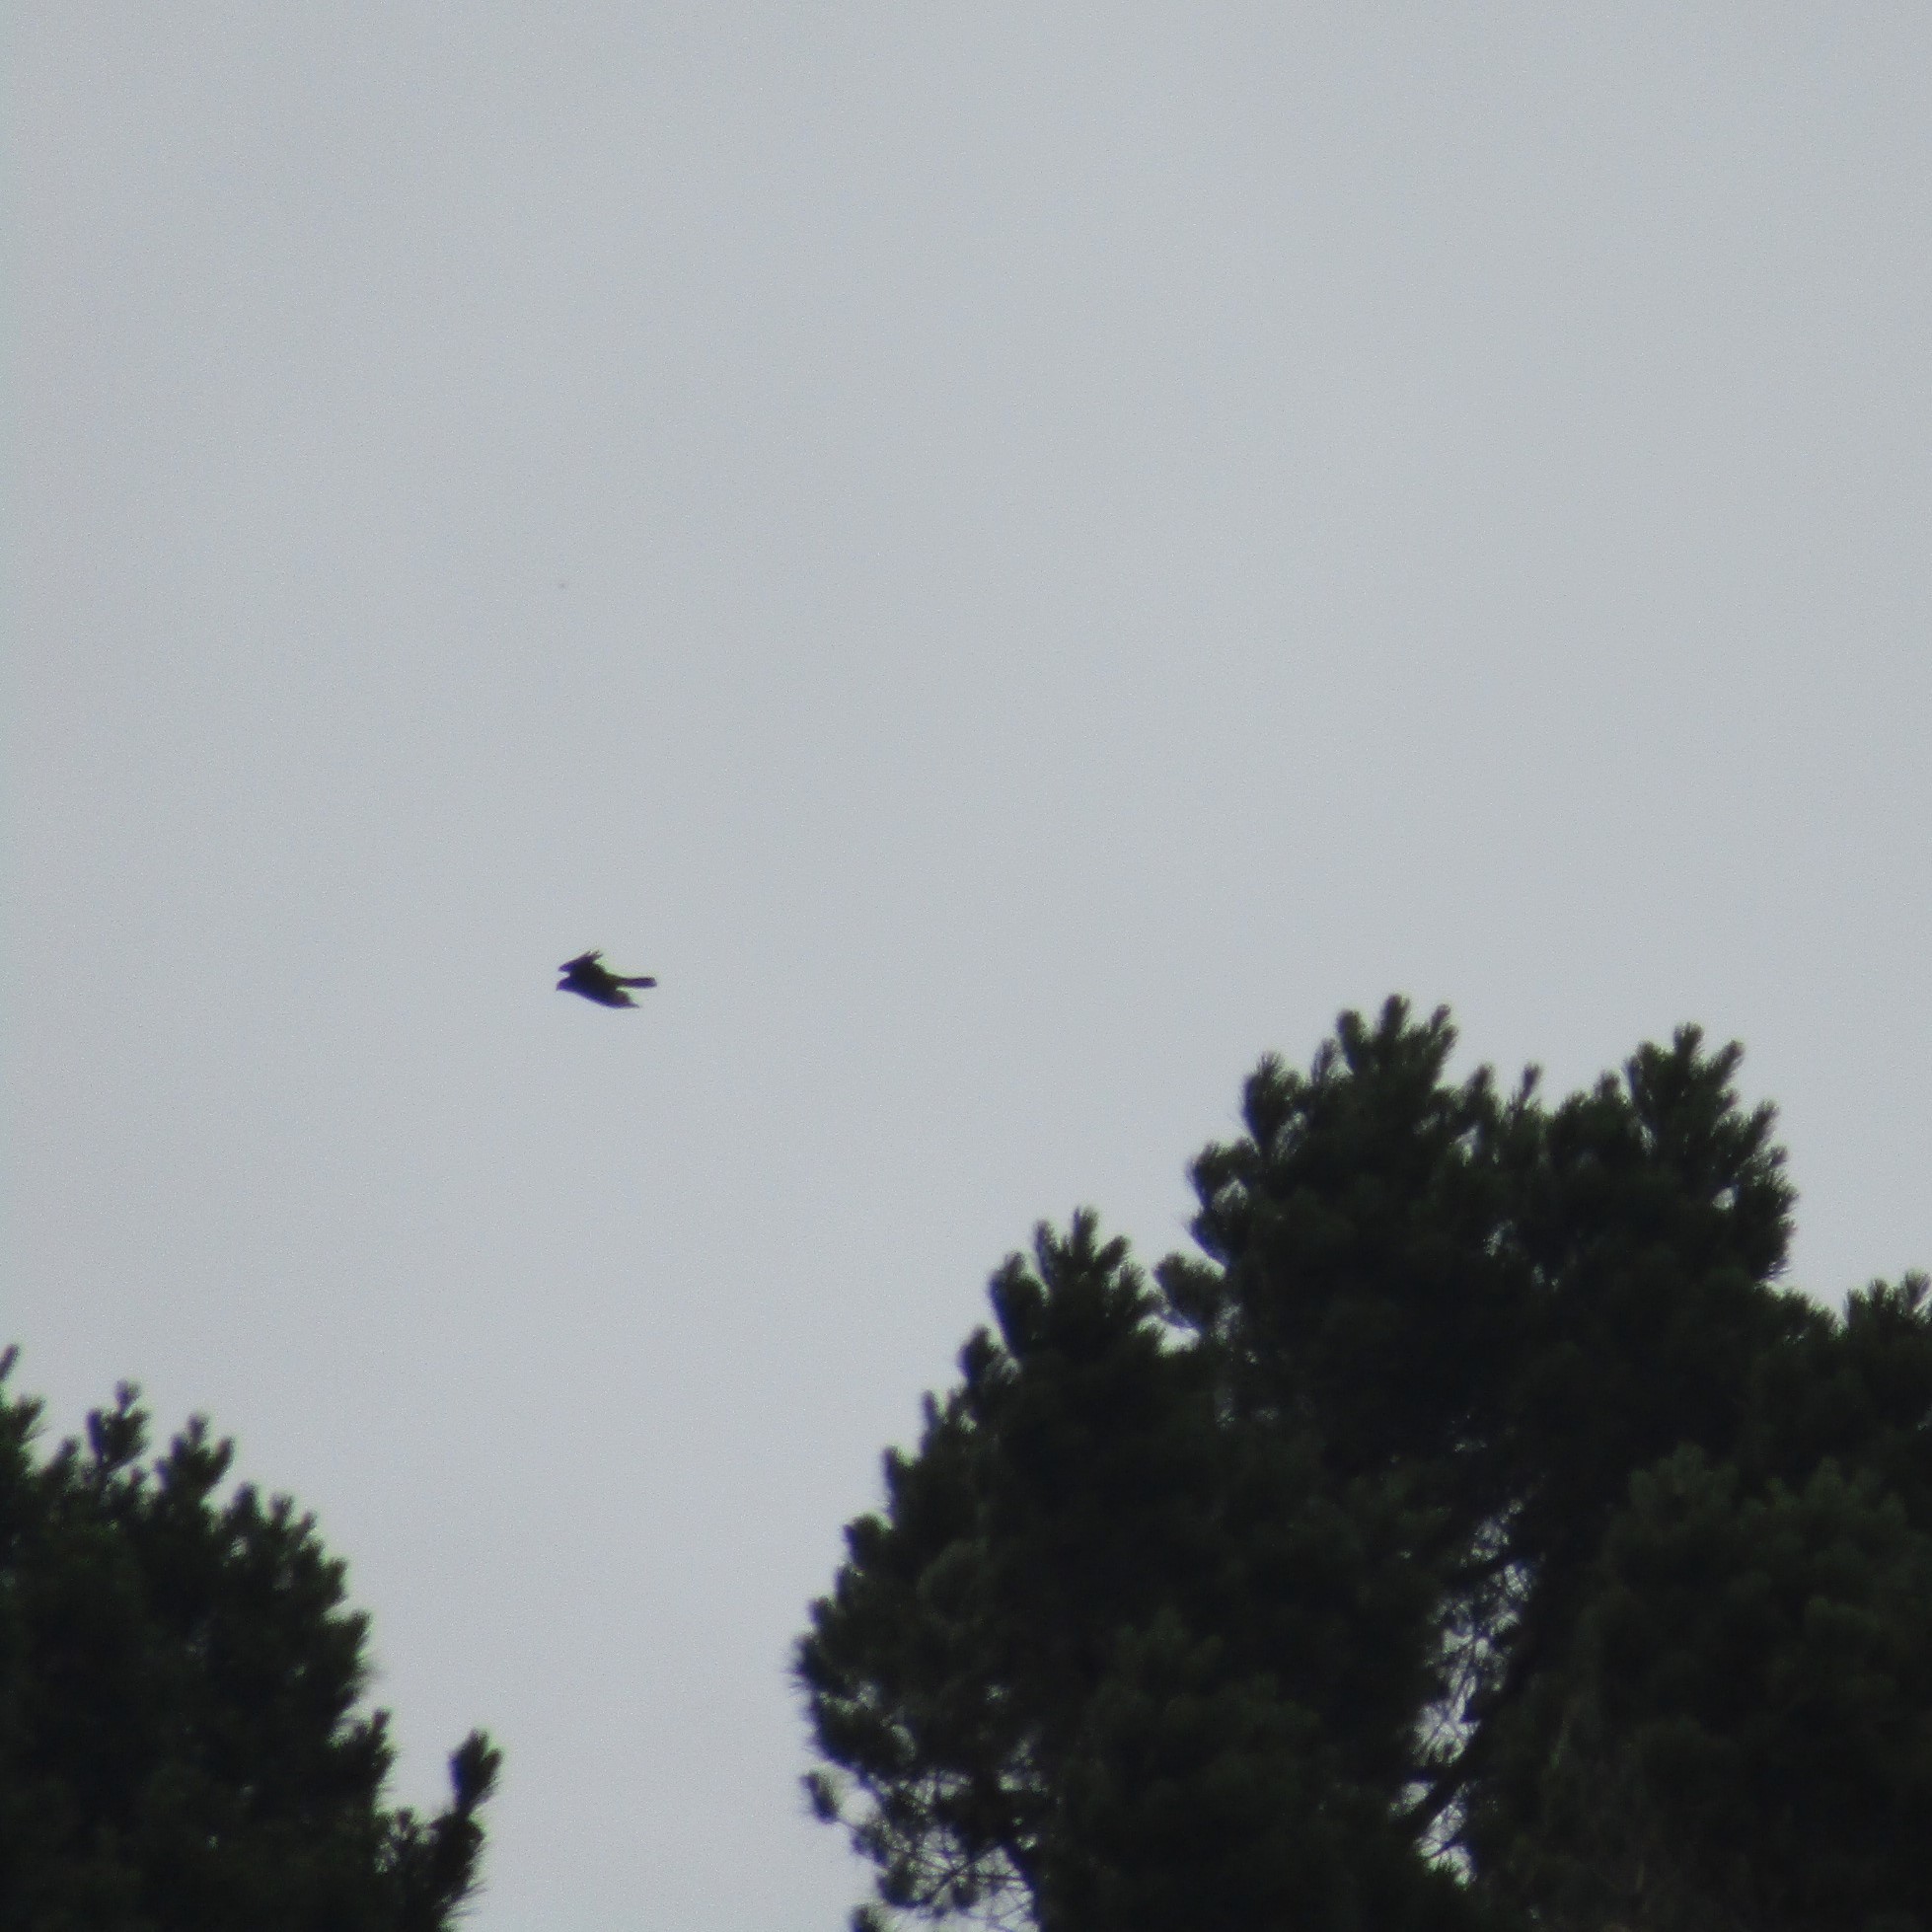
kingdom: Animalia
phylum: Chordata
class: Aves
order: Falconiformes
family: Falconidae
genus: Falco
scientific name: Falco novaeseelandiae
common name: New zealand falcon
